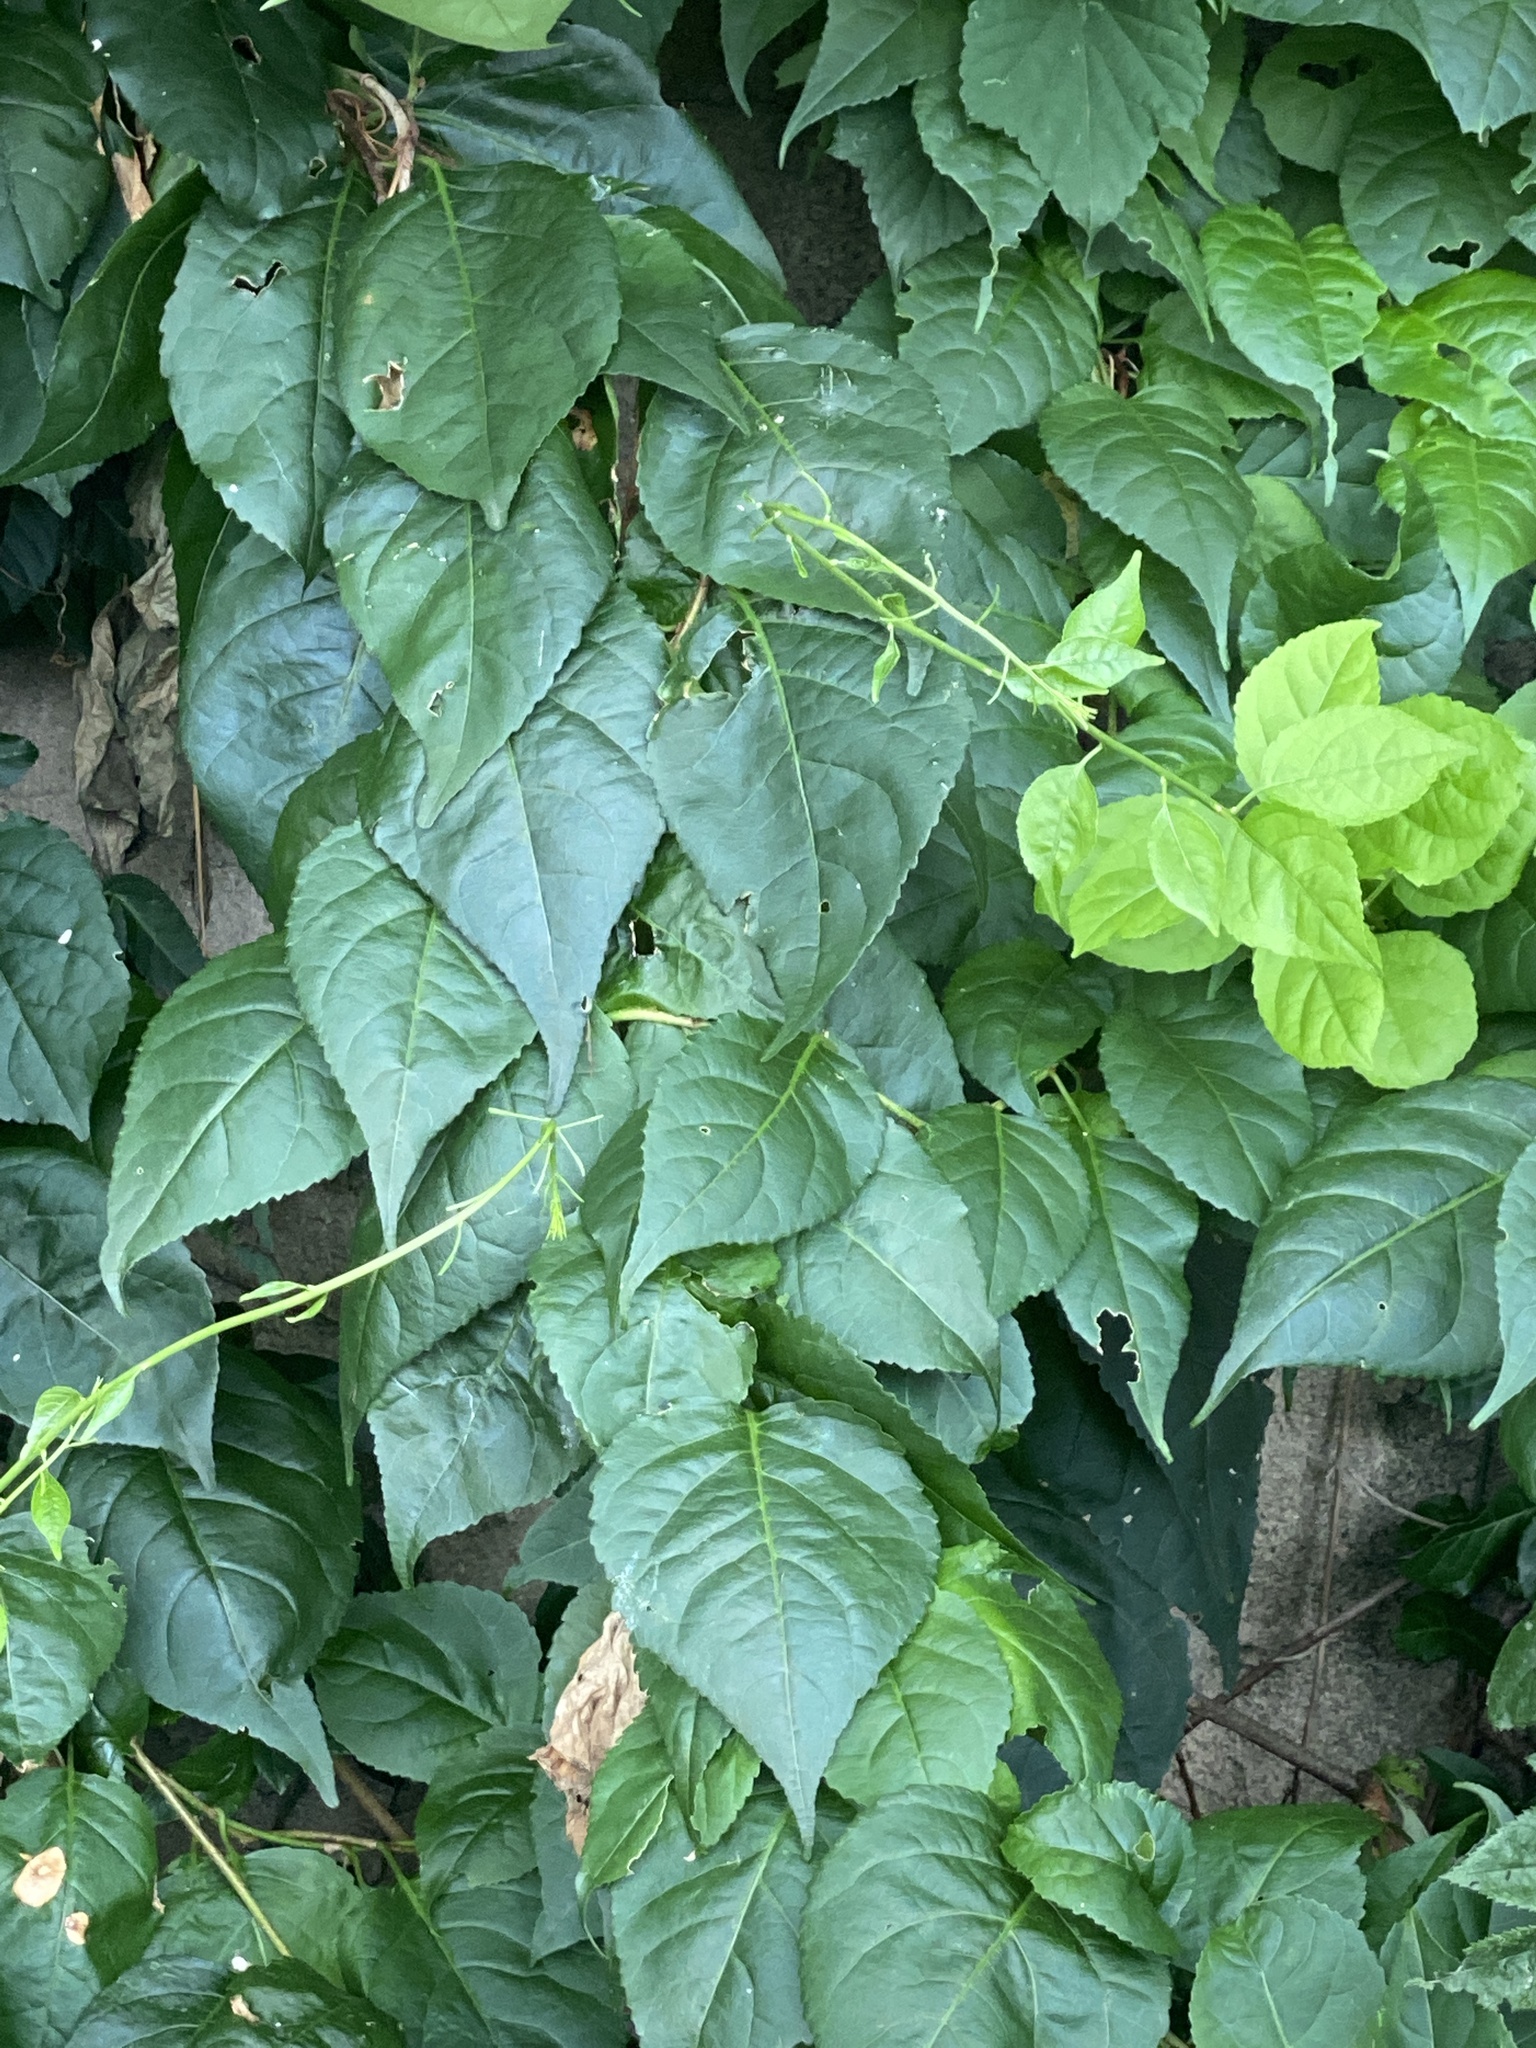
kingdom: Plantae
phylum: Tracheophyta
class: Magnoliopsida
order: Celastrales
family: Celastraceae
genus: Celastrus
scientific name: Celastrus orbiculatus
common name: Oriental bittersweet
